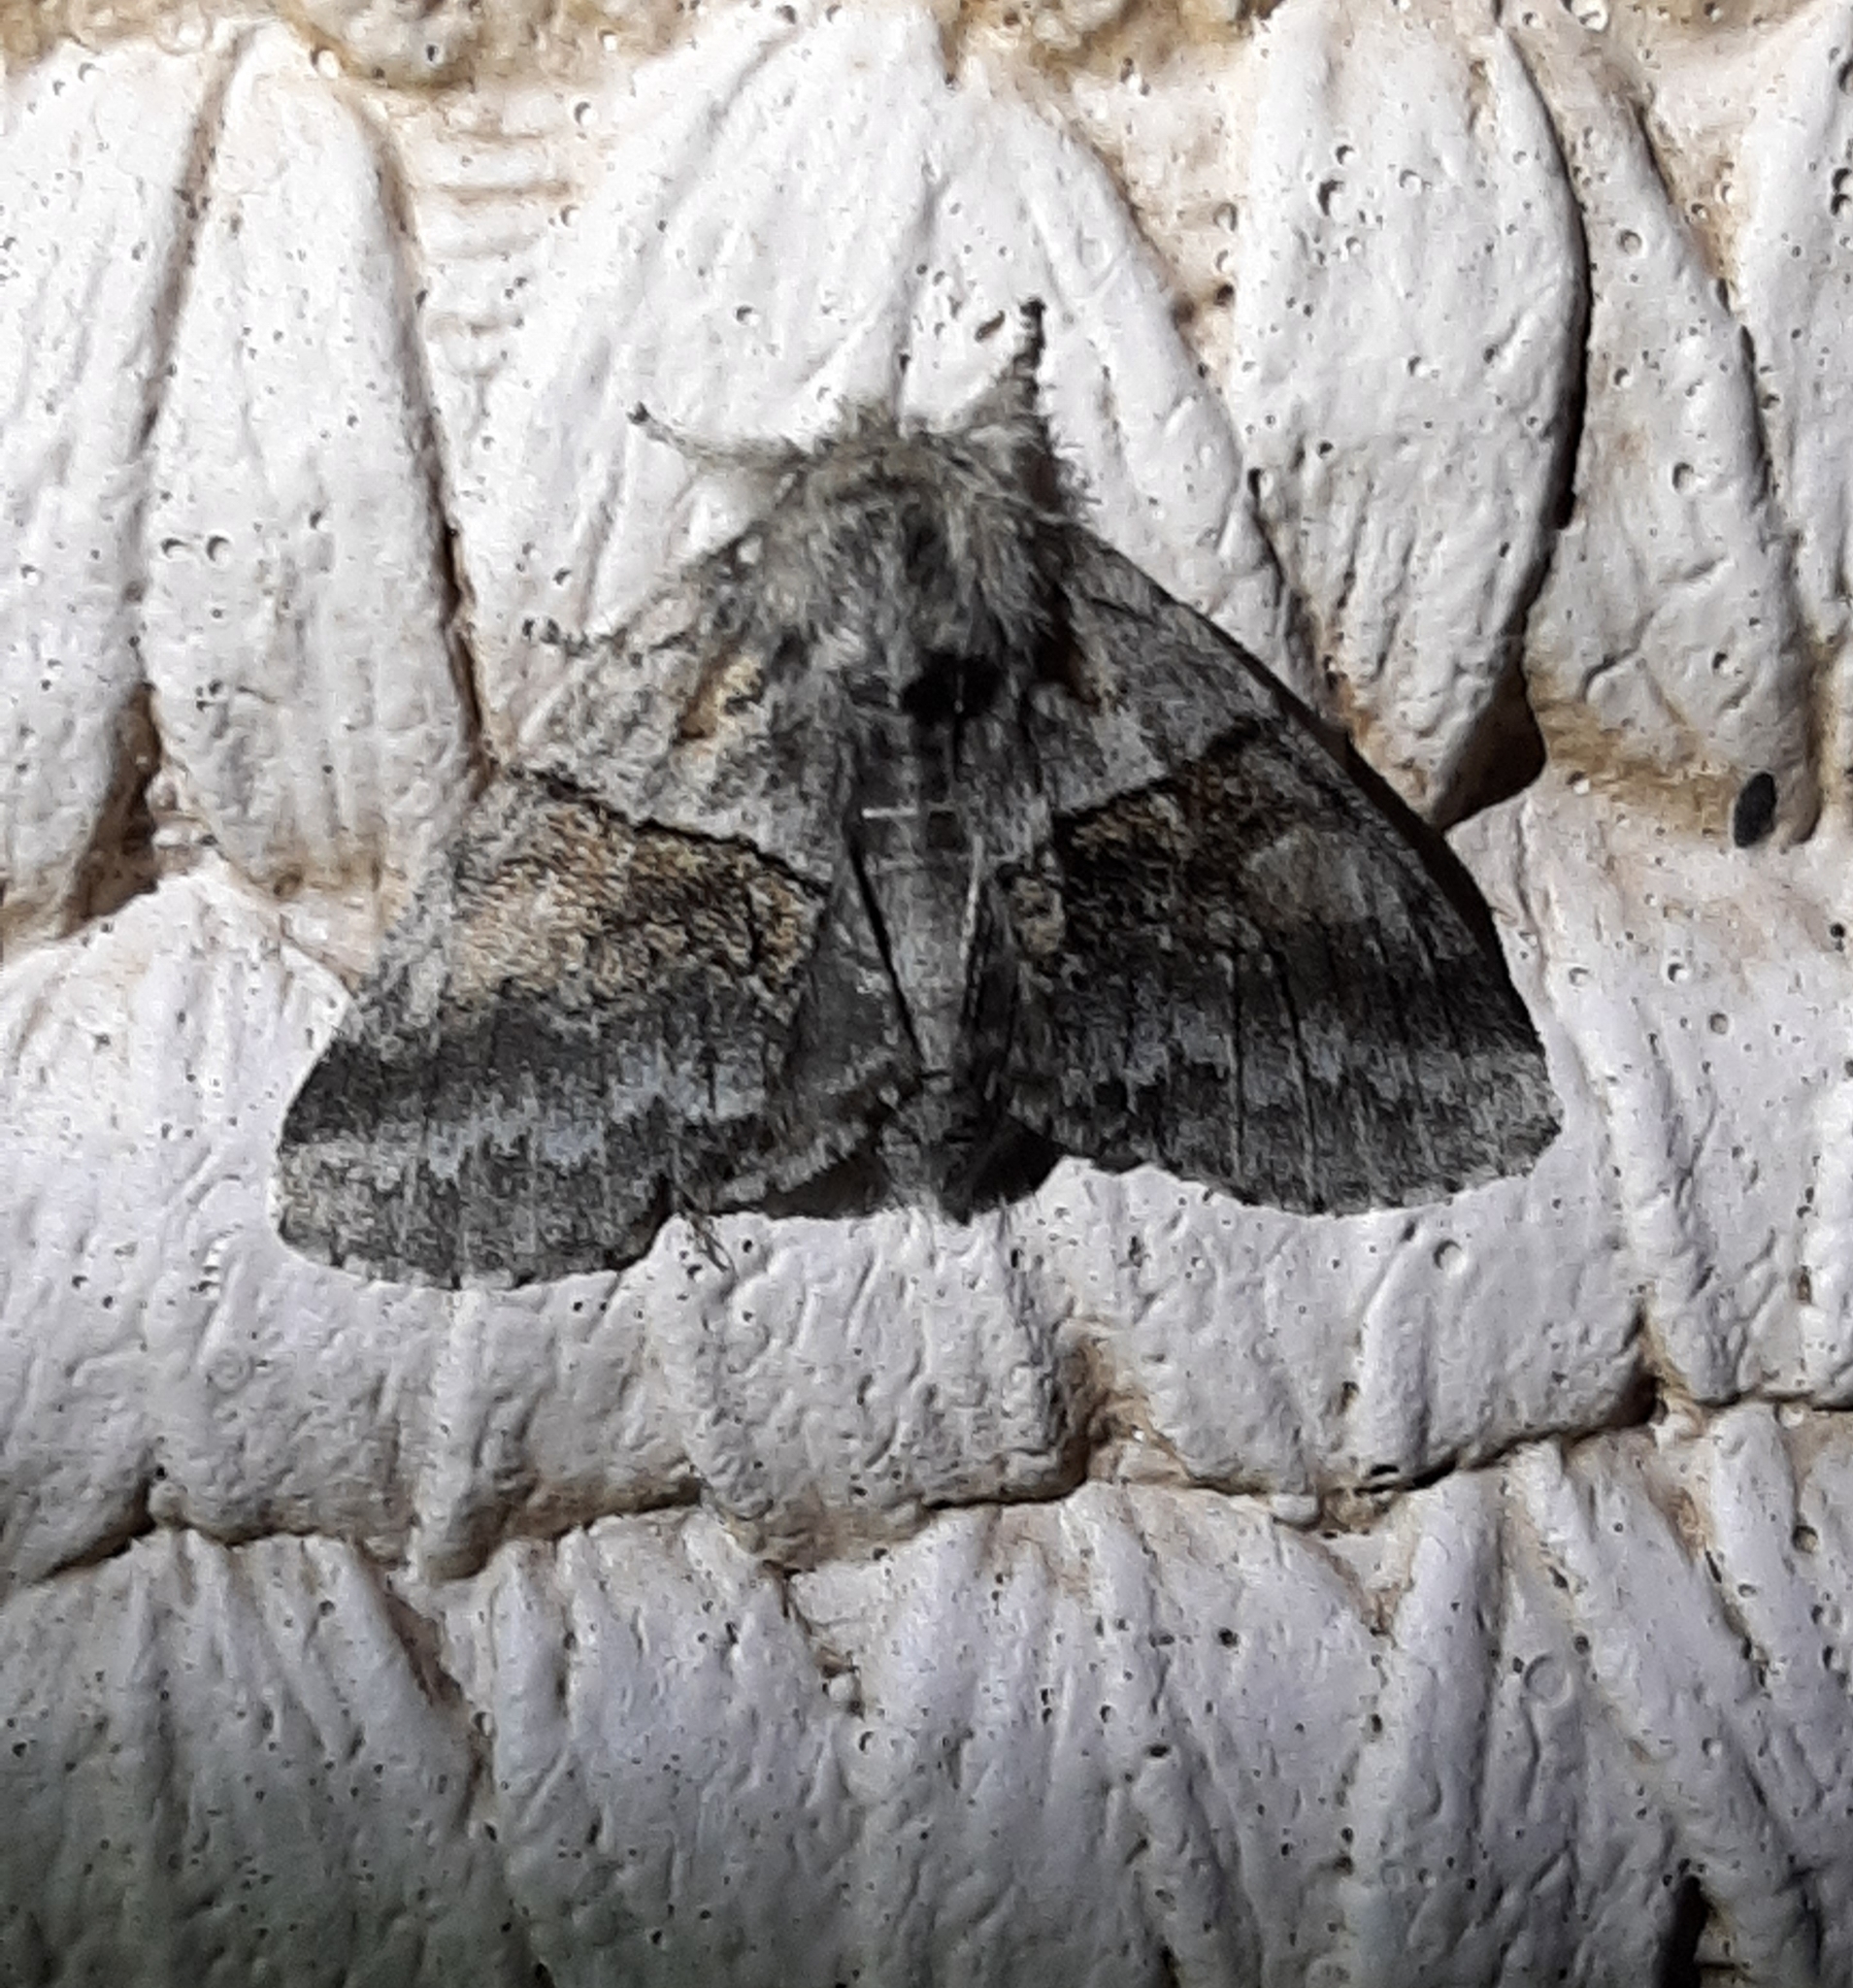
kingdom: Animalia
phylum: Arthropoda
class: Insecta
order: Lepidoptera
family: Notodontidae
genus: Gluphisia
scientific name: Gluphisia septentrionis
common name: Common gluphisia
